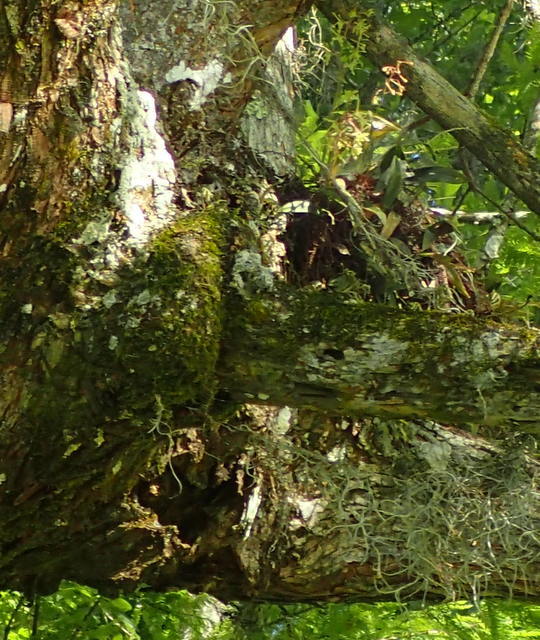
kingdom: Plantae
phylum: Tracheophyta
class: Liliopsida
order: Asparagales
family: Orchidaceae
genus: Epidendrum
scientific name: Epidendrum conopseum
